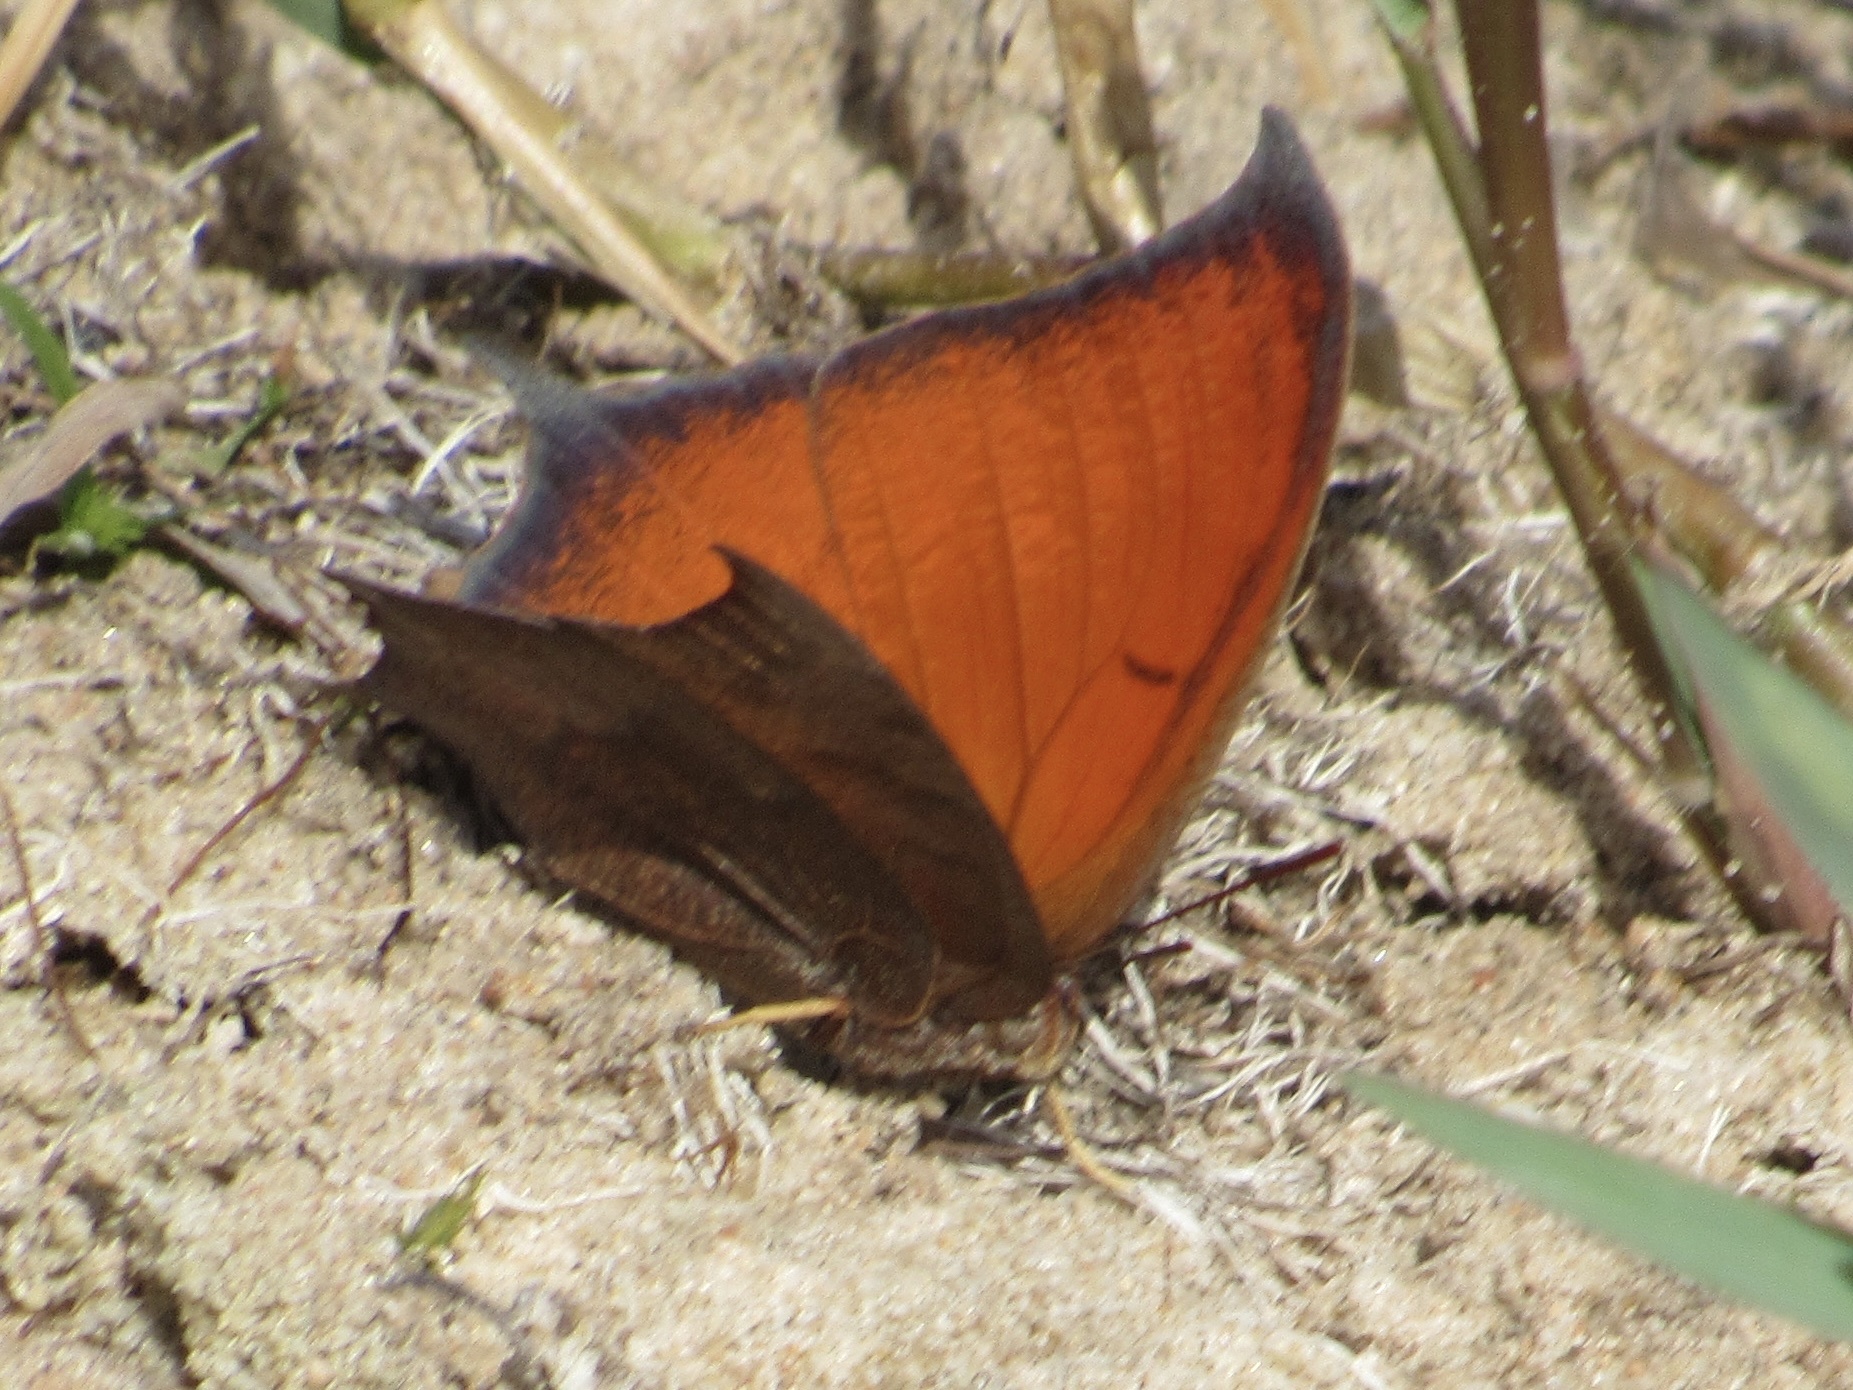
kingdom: Animalia
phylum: Arthropoda
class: Insecta
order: Lepidoptera
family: Nymphalidae
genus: Anaea
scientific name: Anaea andria
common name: Goatweed leafwing
